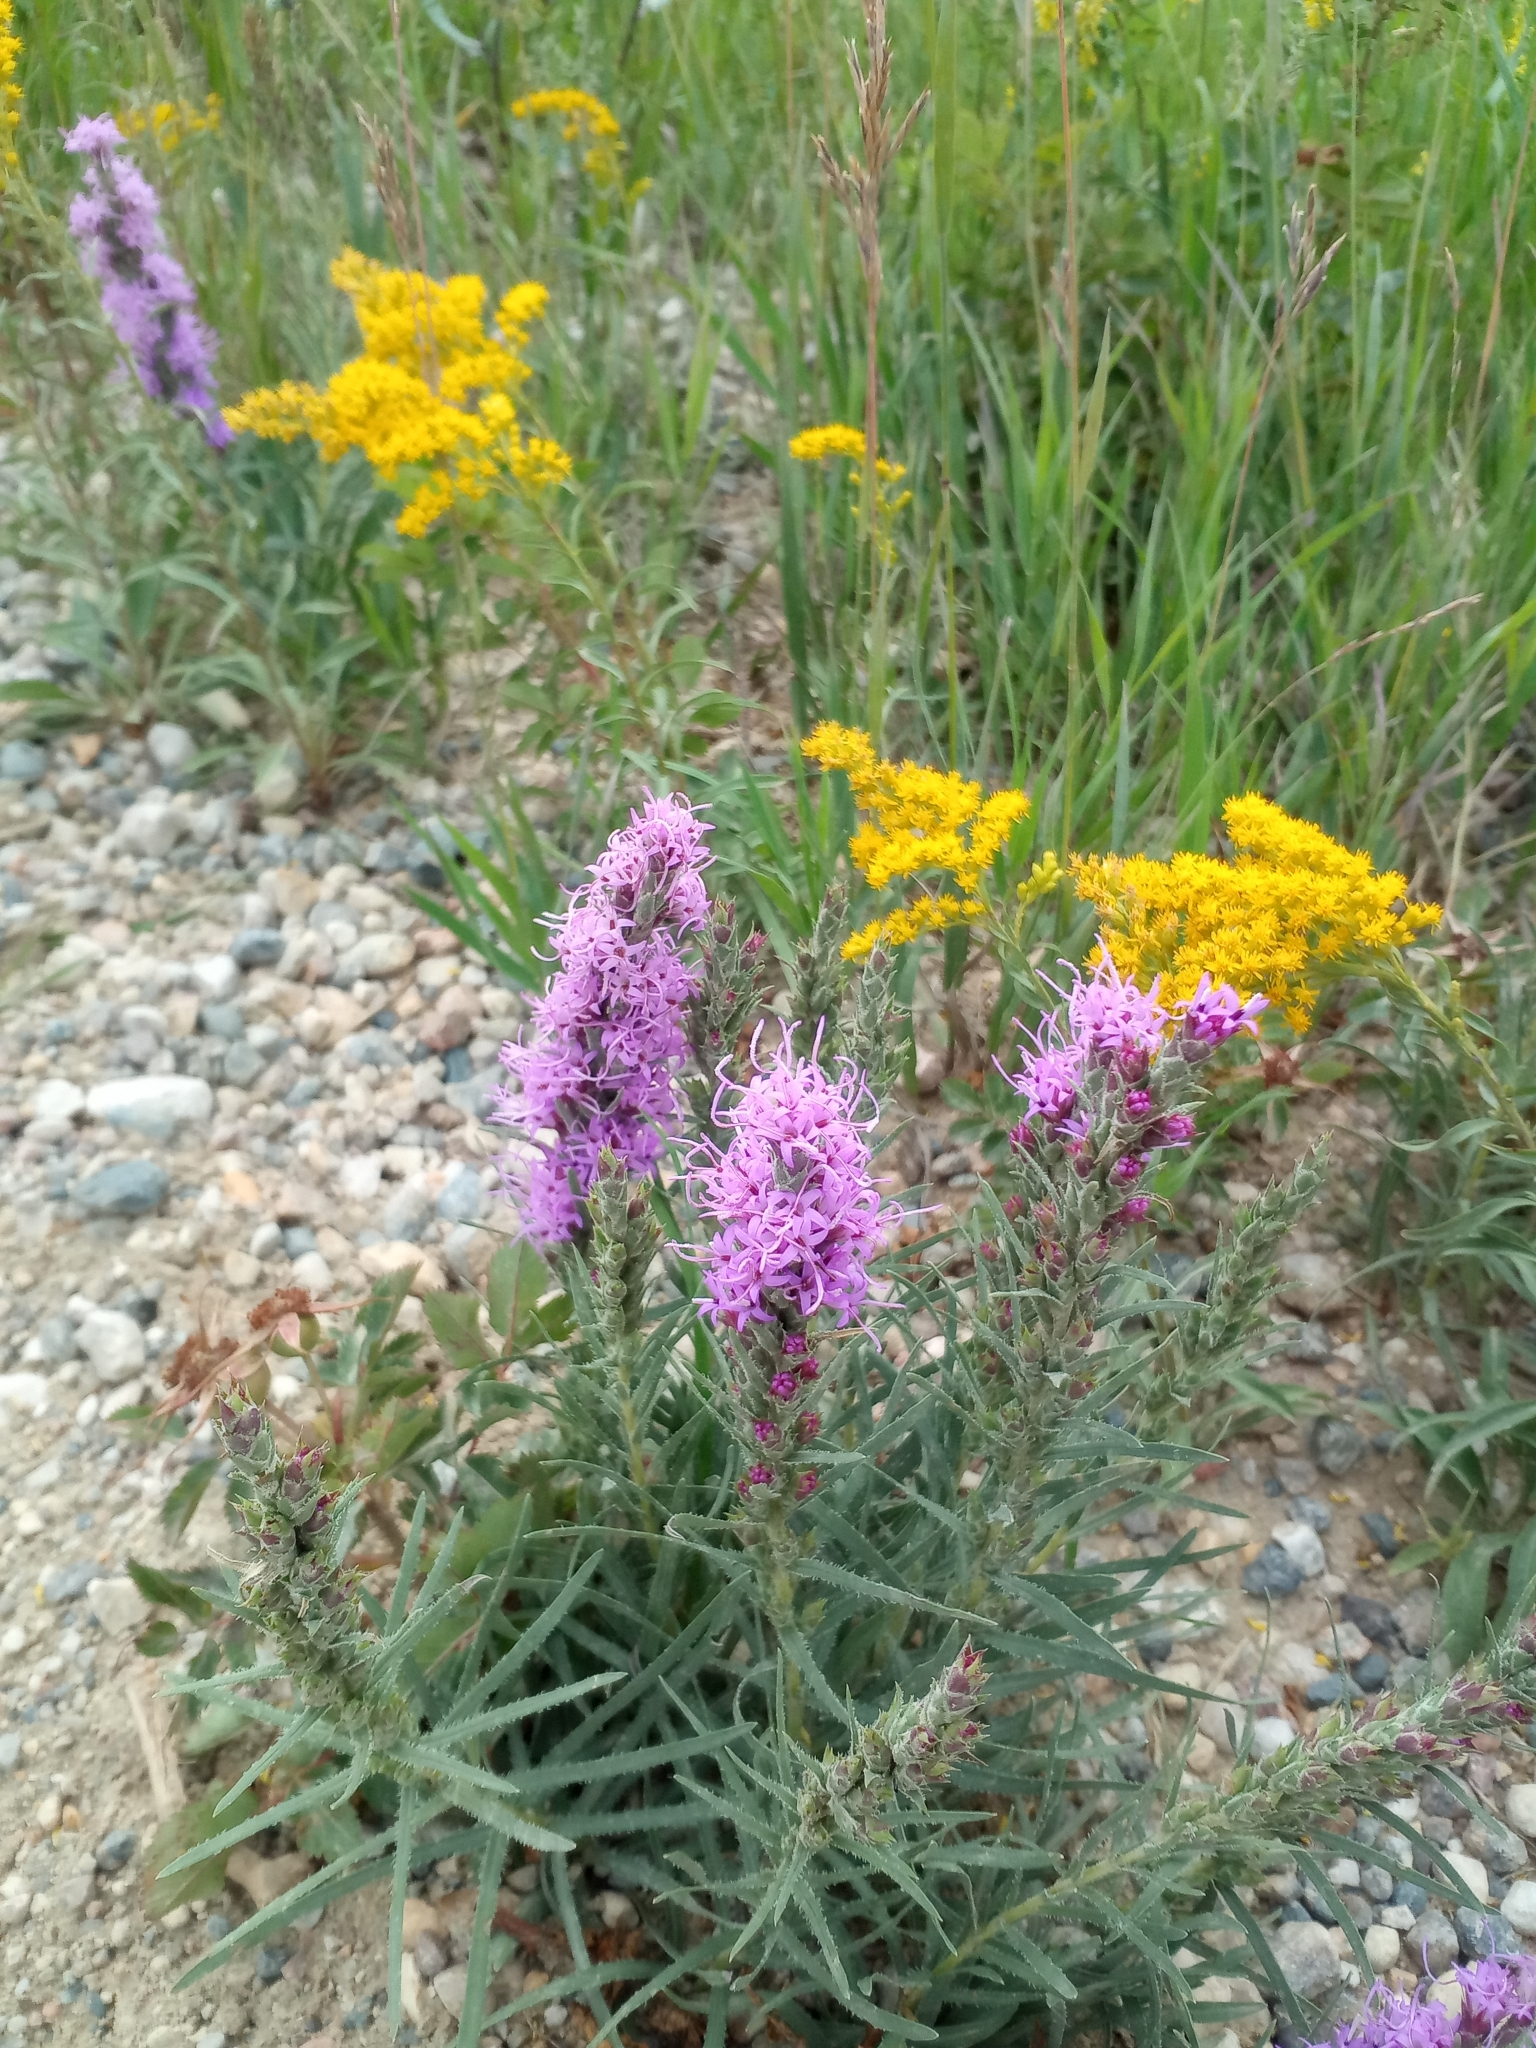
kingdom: Plantae
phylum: Tracheophyta
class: Magnoliopsida
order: Asterales
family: Asteraceae
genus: Liatris
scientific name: Liatris punctata
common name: Dotted gayfeather
